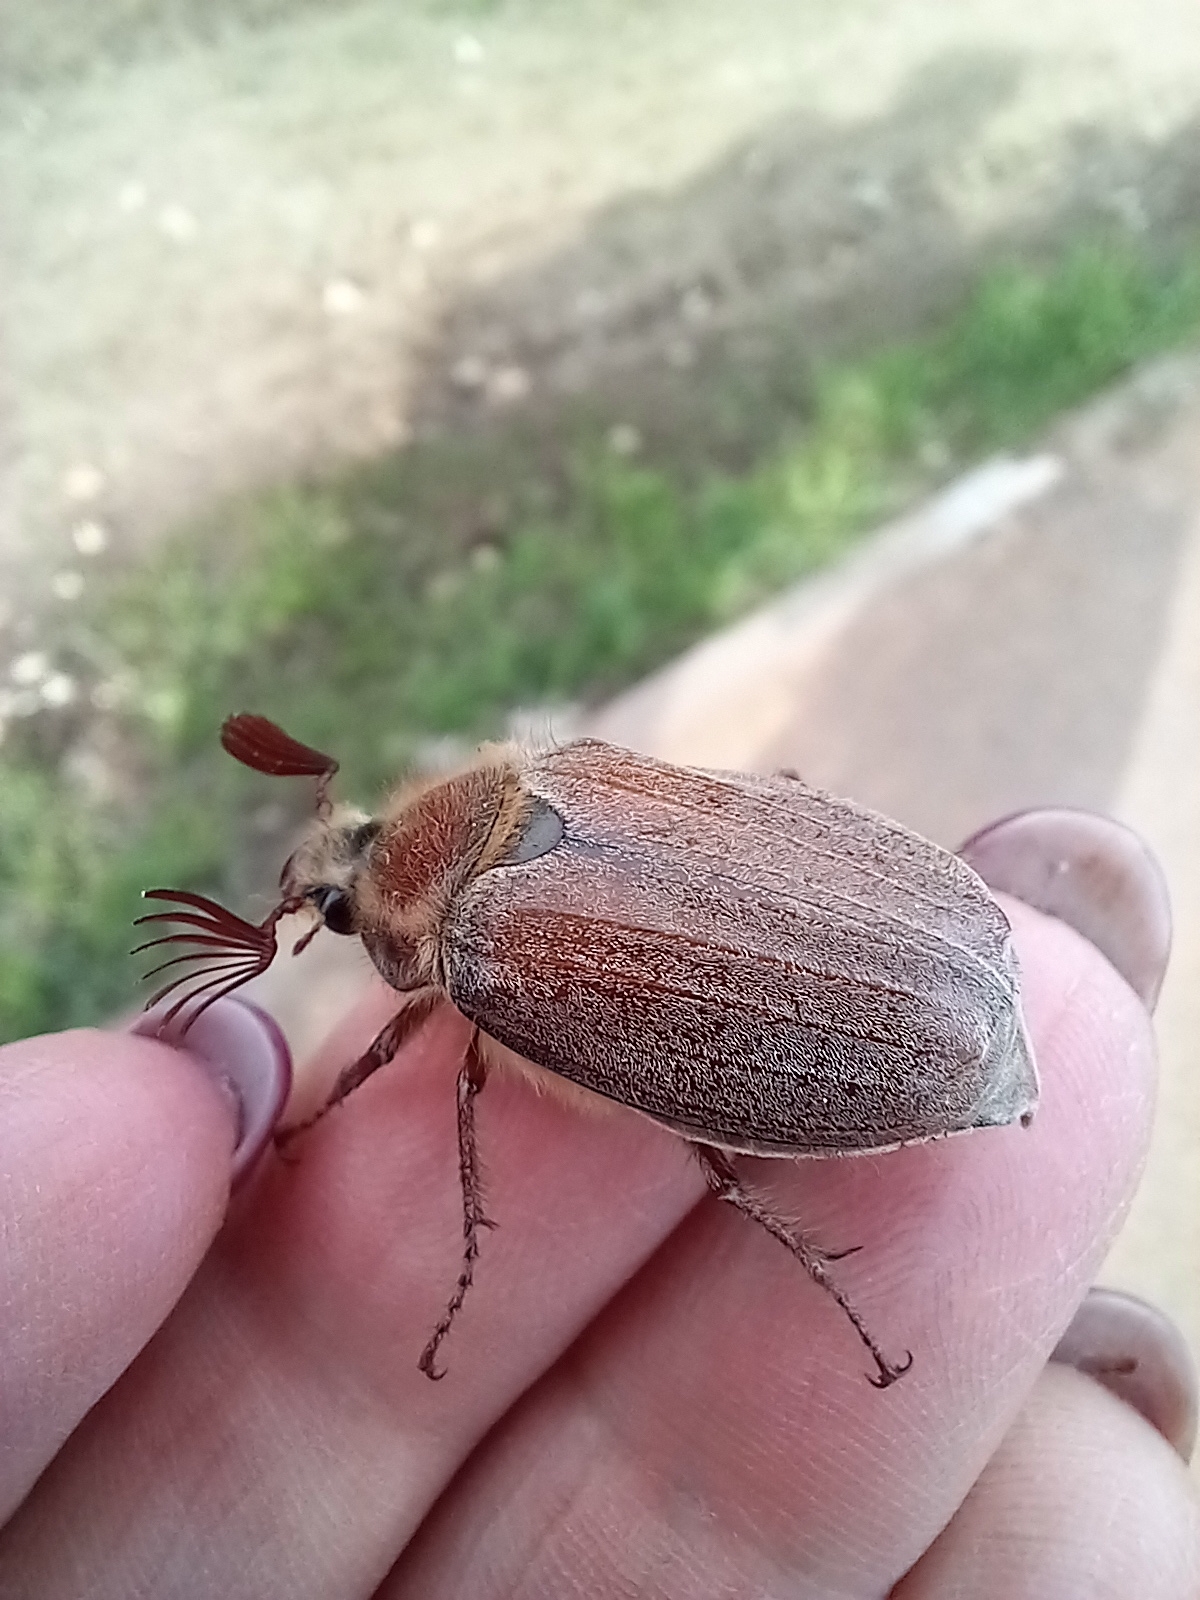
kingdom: Animalia
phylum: Arthropoda
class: Insecta
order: Coleoptera
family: Scarabaeidae
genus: Melolontha
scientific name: Melolontha hippocastani
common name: Chestnut cockchafer
